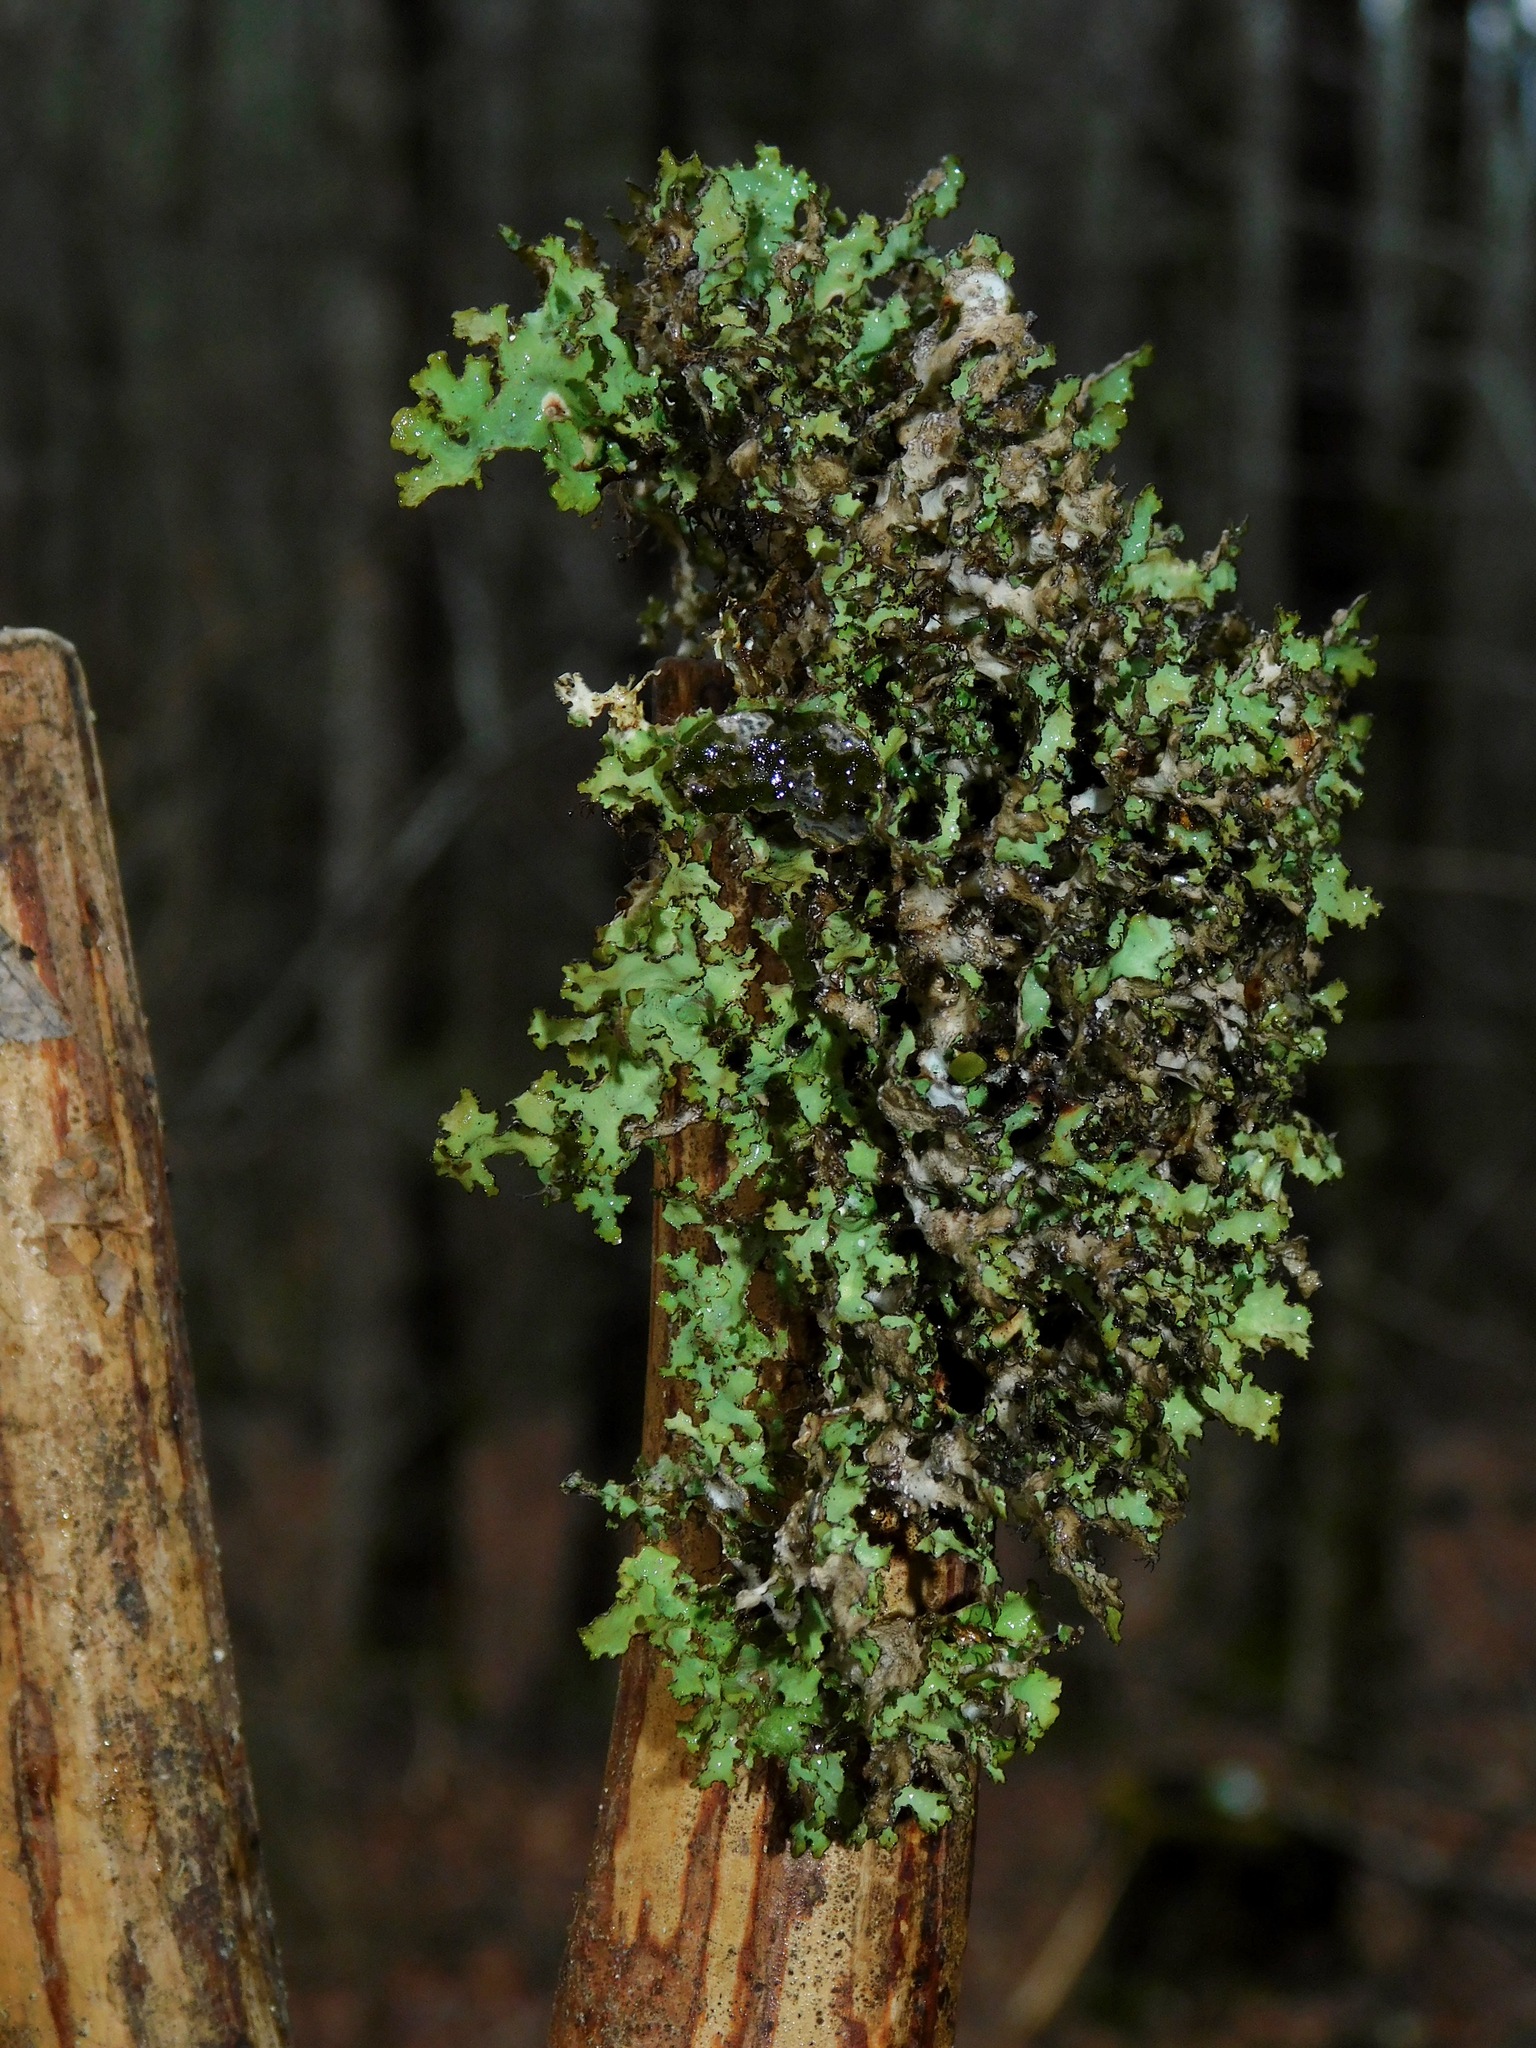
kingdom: Fungi
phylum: Ascomycota
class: Lecanoromycetes
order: Lecanorales
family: Parmeliaceae
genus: Nephromopsis
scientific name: Nephromopsis orbata
